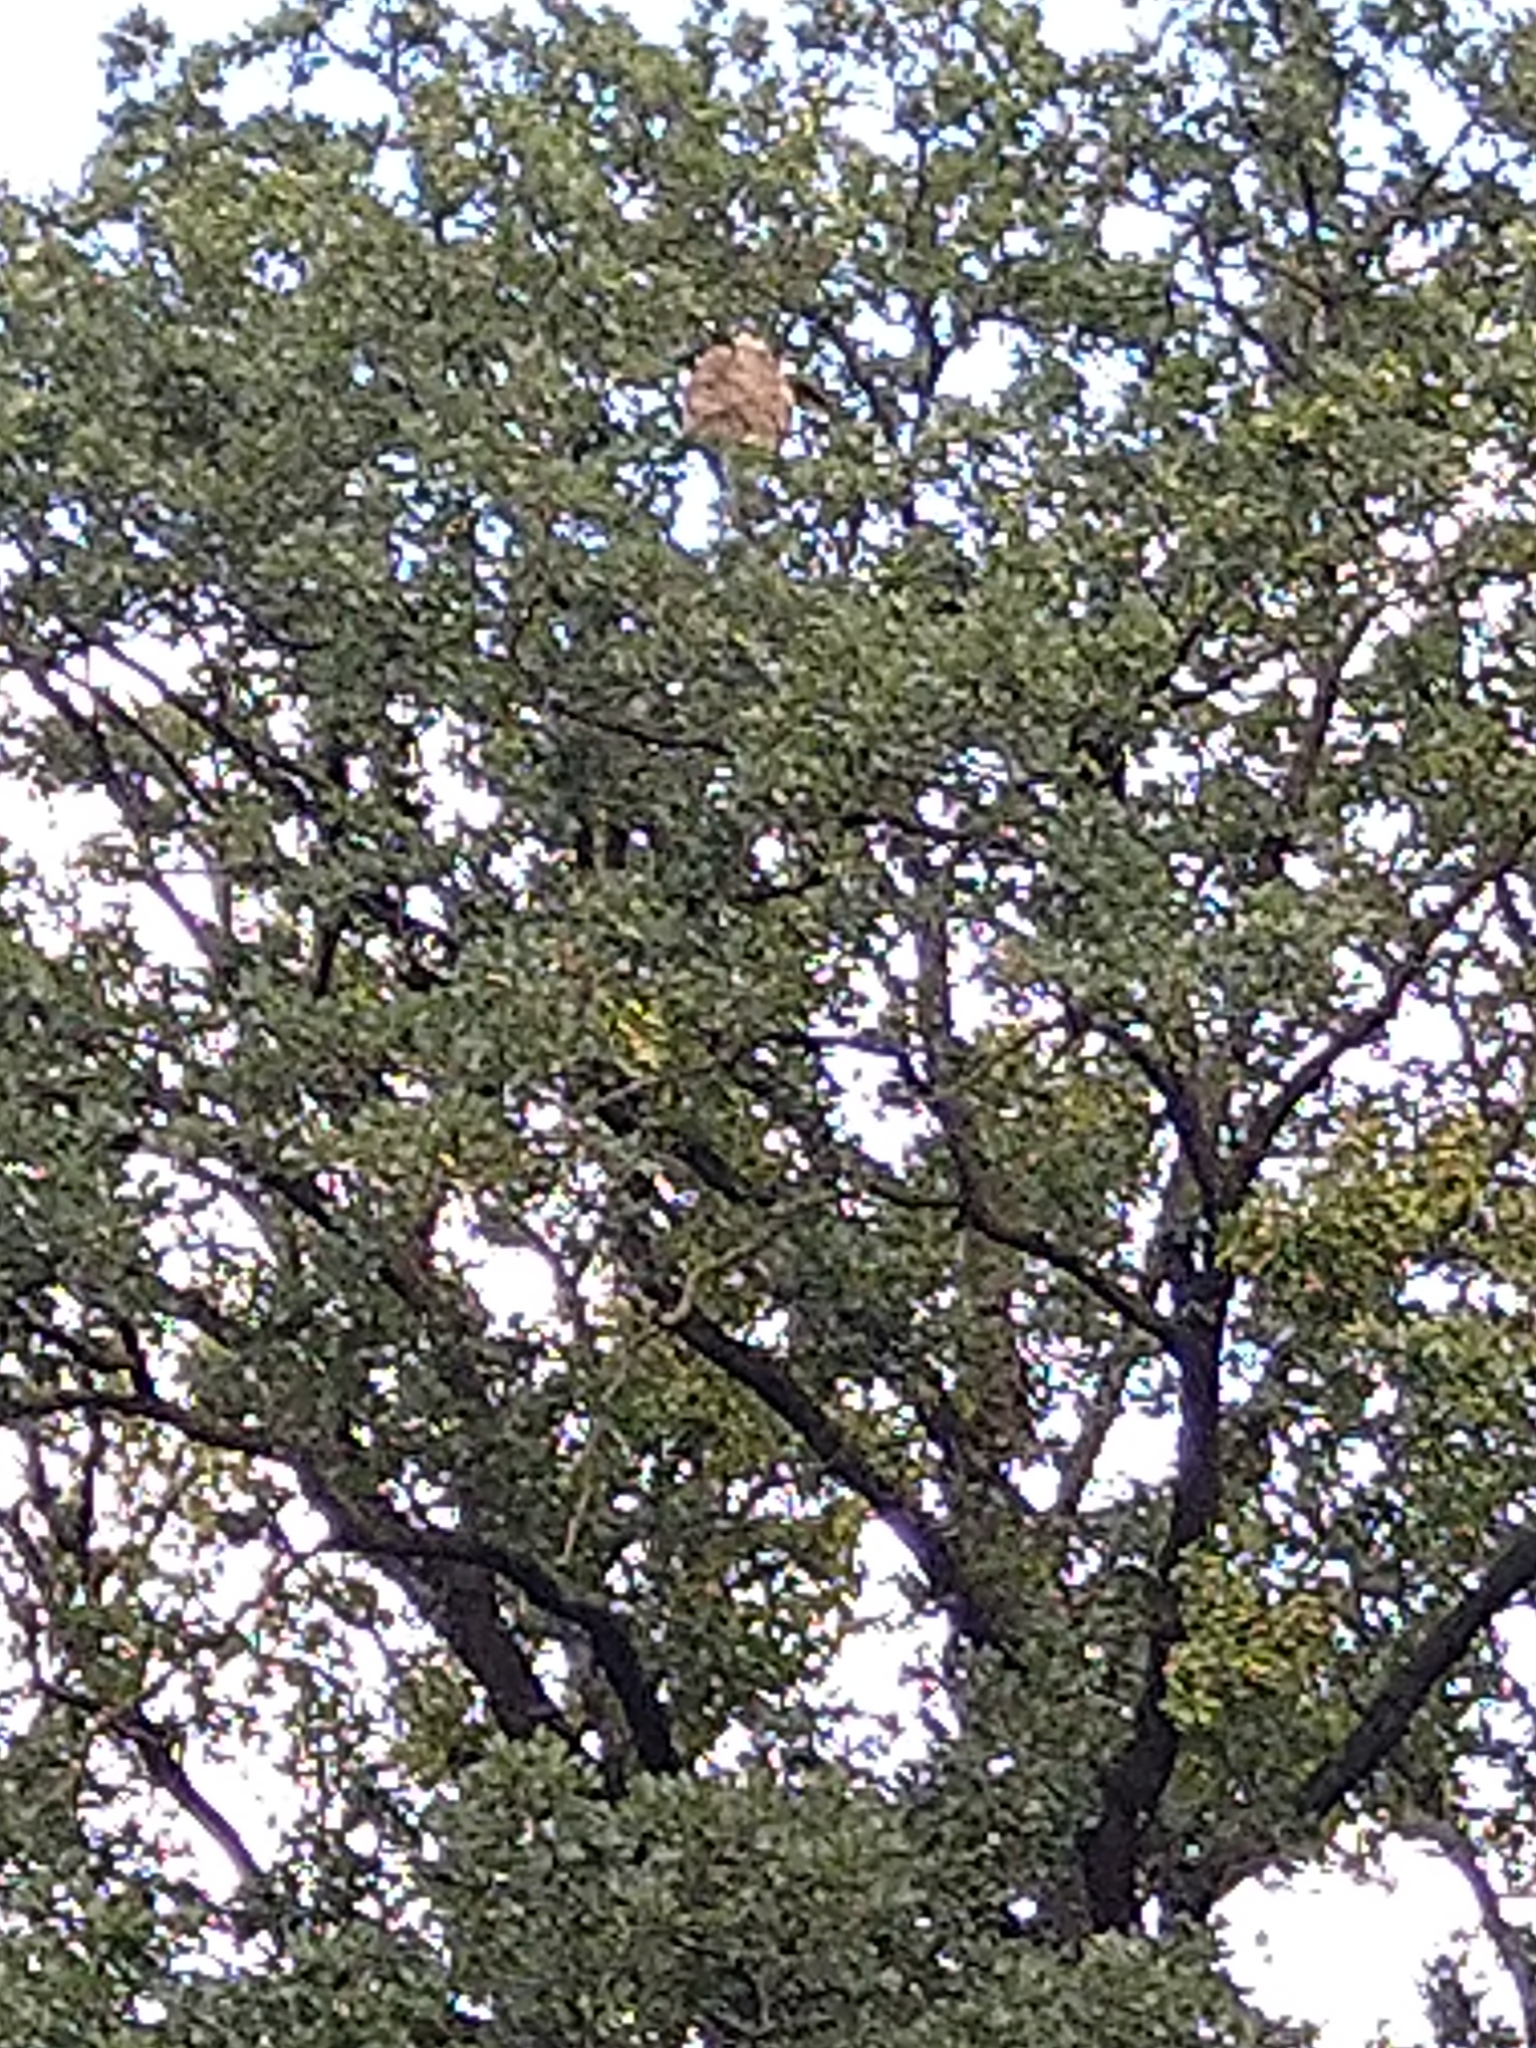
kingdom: Animalia
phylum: Arthropoda
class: Insecta
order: Hymenoptera
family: Vespidae
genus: Vespa
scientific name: Vespa velutina
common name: Asian hornet
